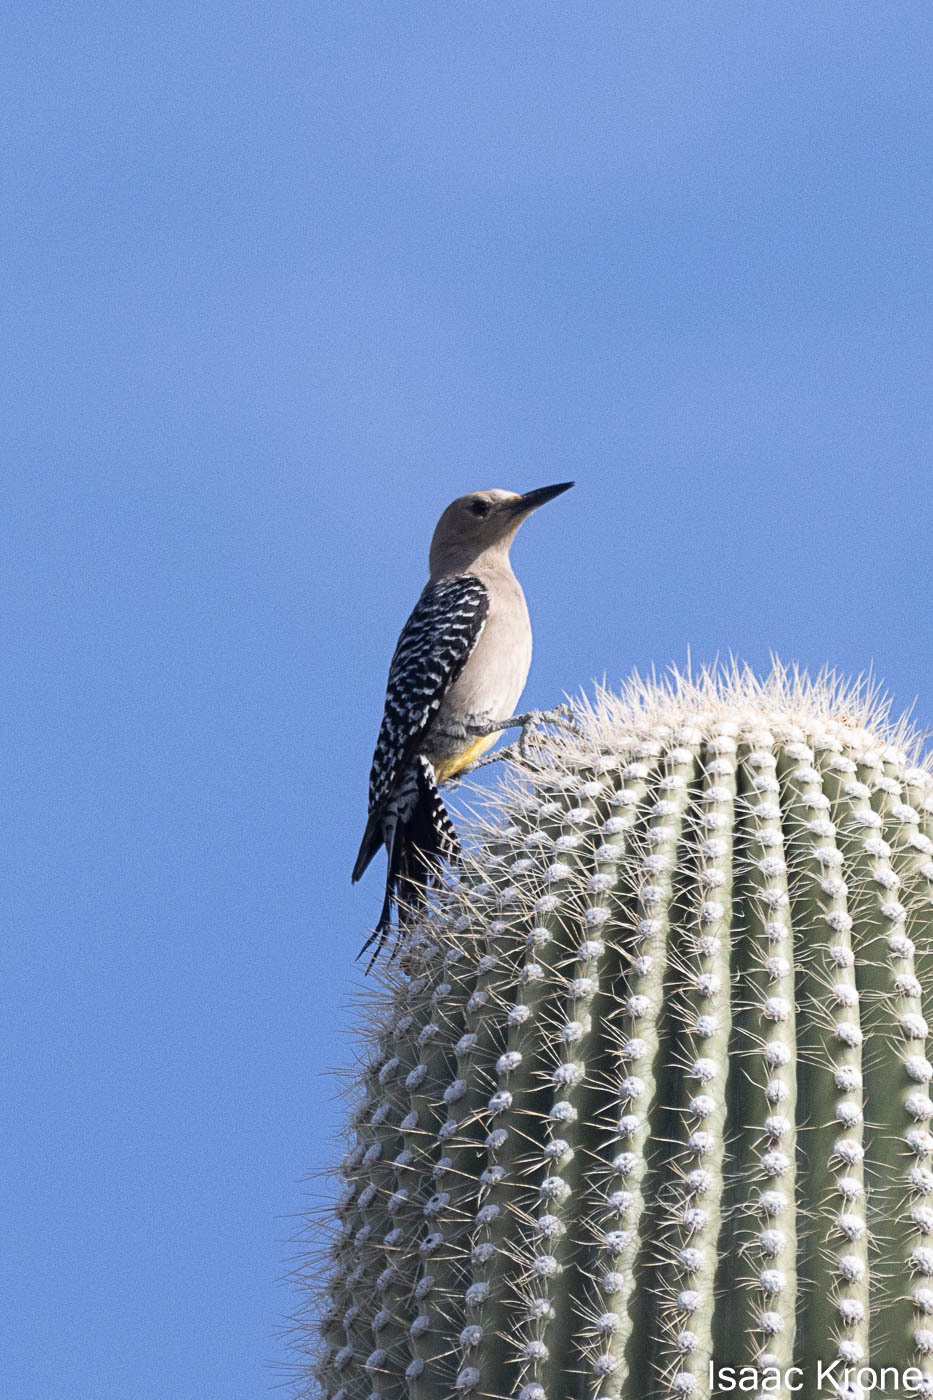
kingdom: Animalia
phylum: Chordata
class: Aves
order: Piciformes
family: Picidae
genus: Melanerpes
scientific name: Melanerpes uropygialis
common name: Gila woodpecker
